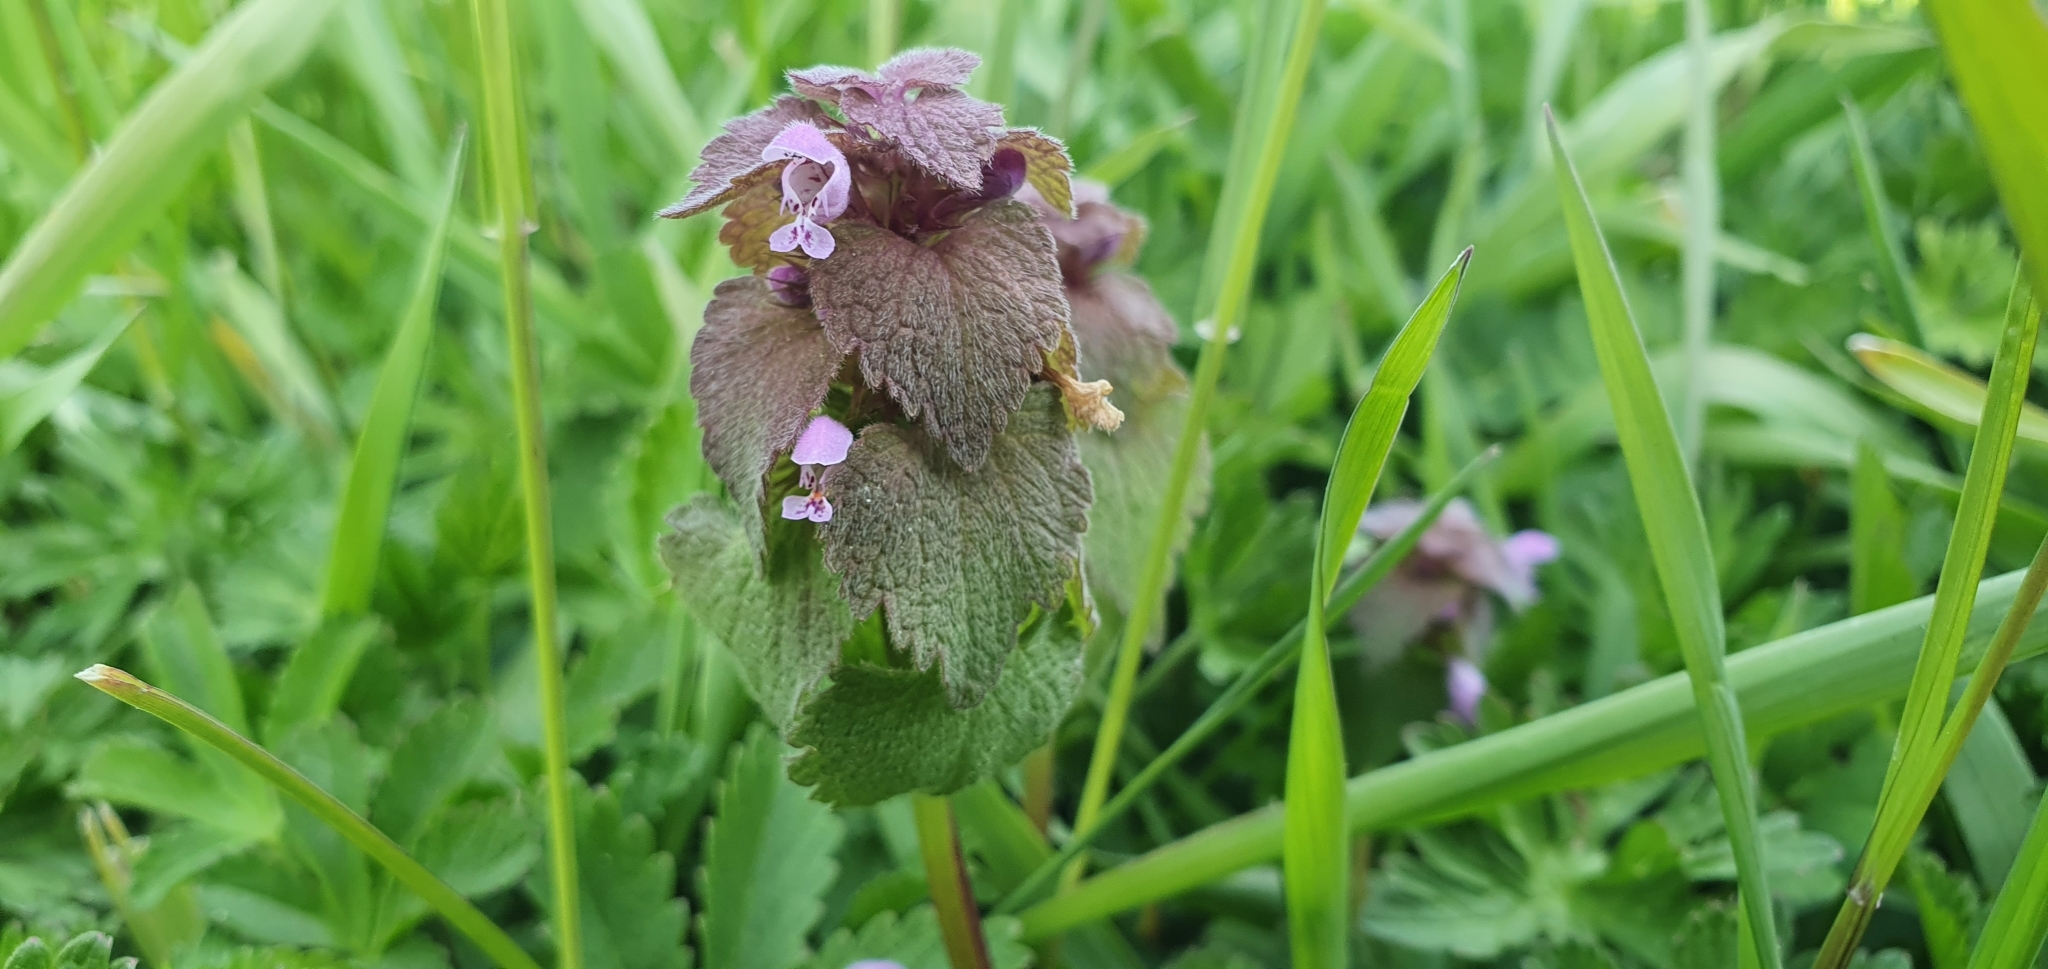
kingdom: Plantae
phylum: Tracheophyta
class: Magnoliopsida
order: Lamiales
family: Lamiaceae
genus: Lamium
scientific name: Lamium purpureum
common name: Red dead-nettle
